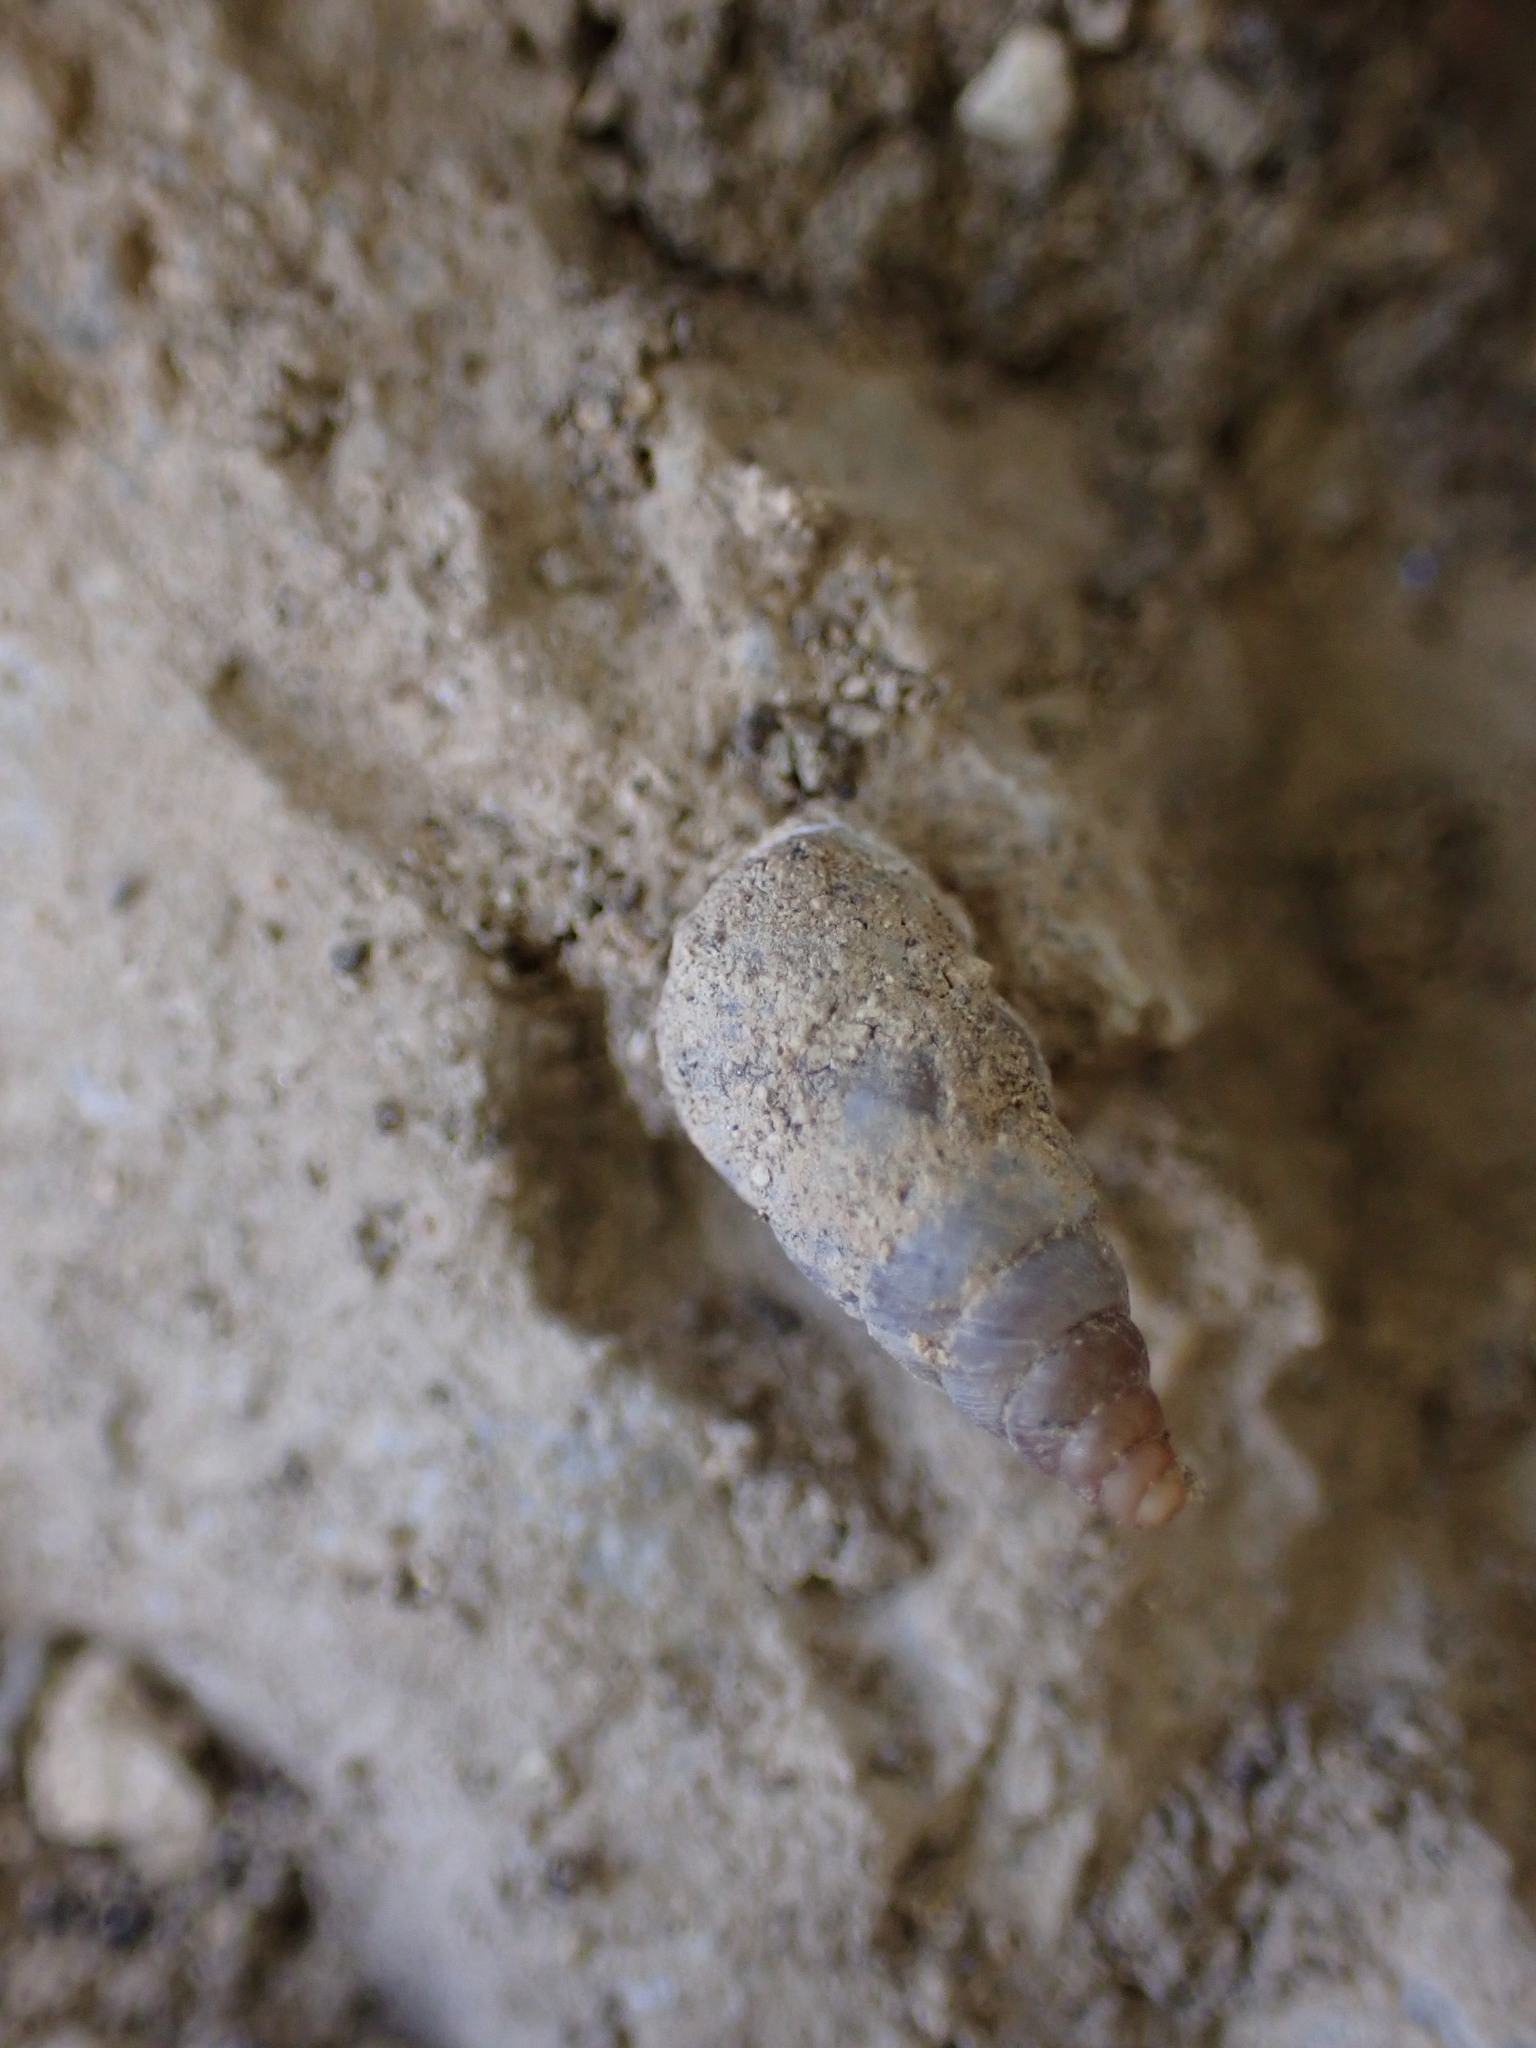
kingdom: Animalia
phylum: Mollusca
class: Gastropoda
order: Stylommatophora
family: Chondrinidae
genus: Solatopupa
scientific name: Solatopupa similis
